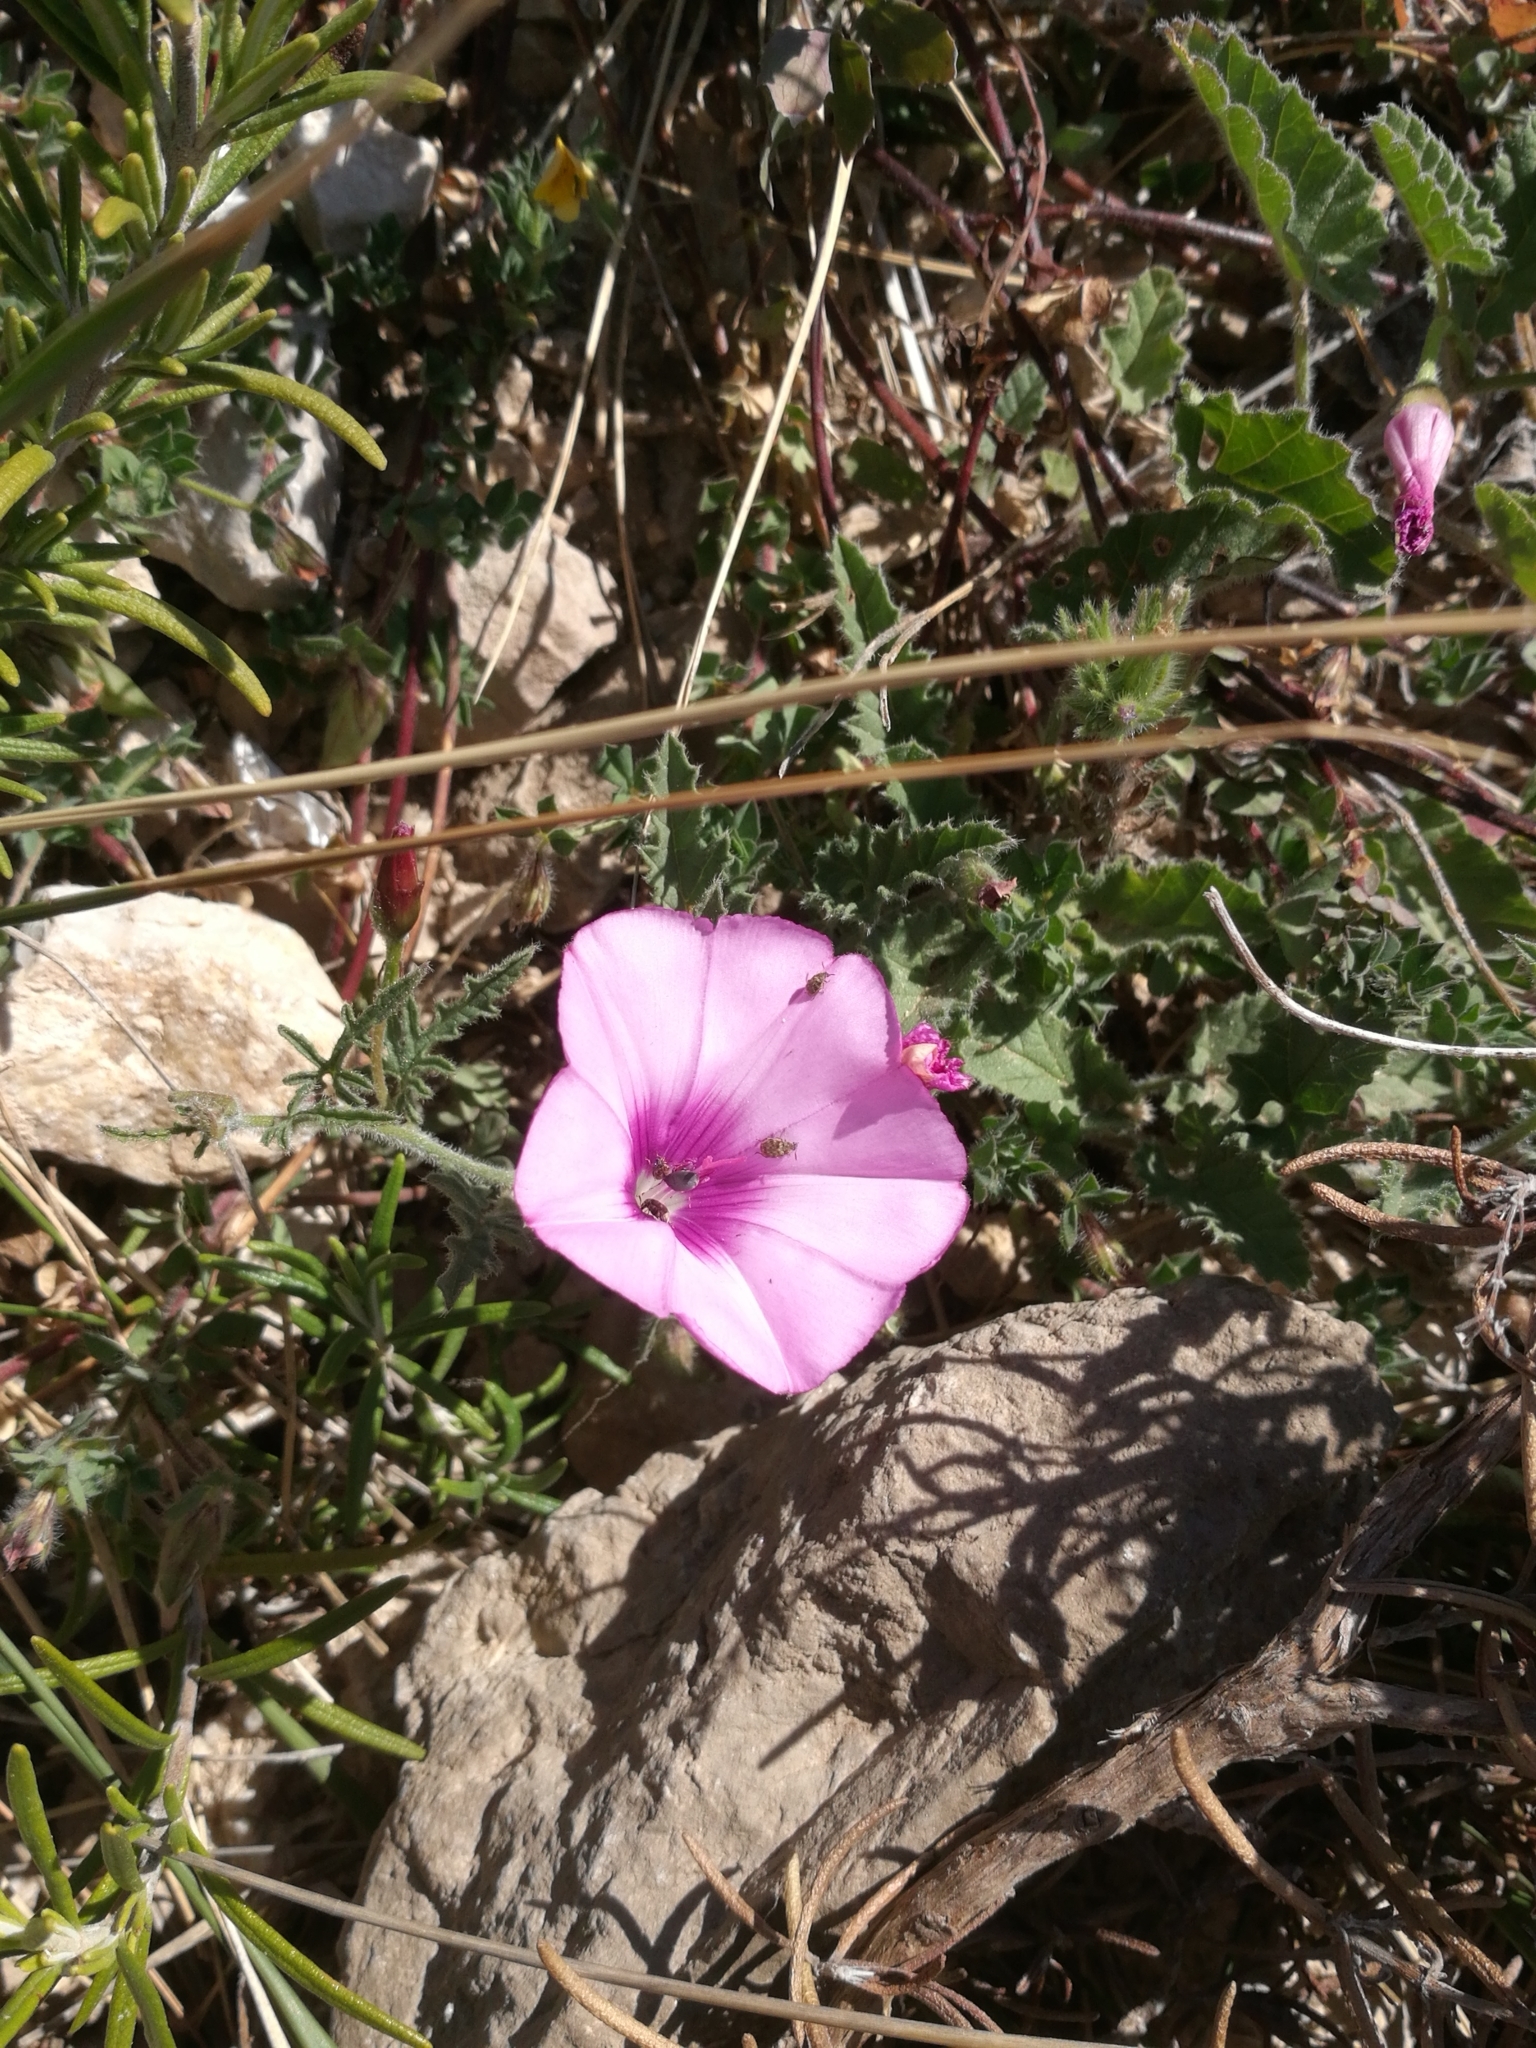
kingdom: Plantae
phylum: Tracheophyta
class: Magnoliopsida
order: Solanales
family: Convolvulaceae
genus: Convolvulus
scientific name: Convolvulus althaeoides
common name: Mallow bindweed
